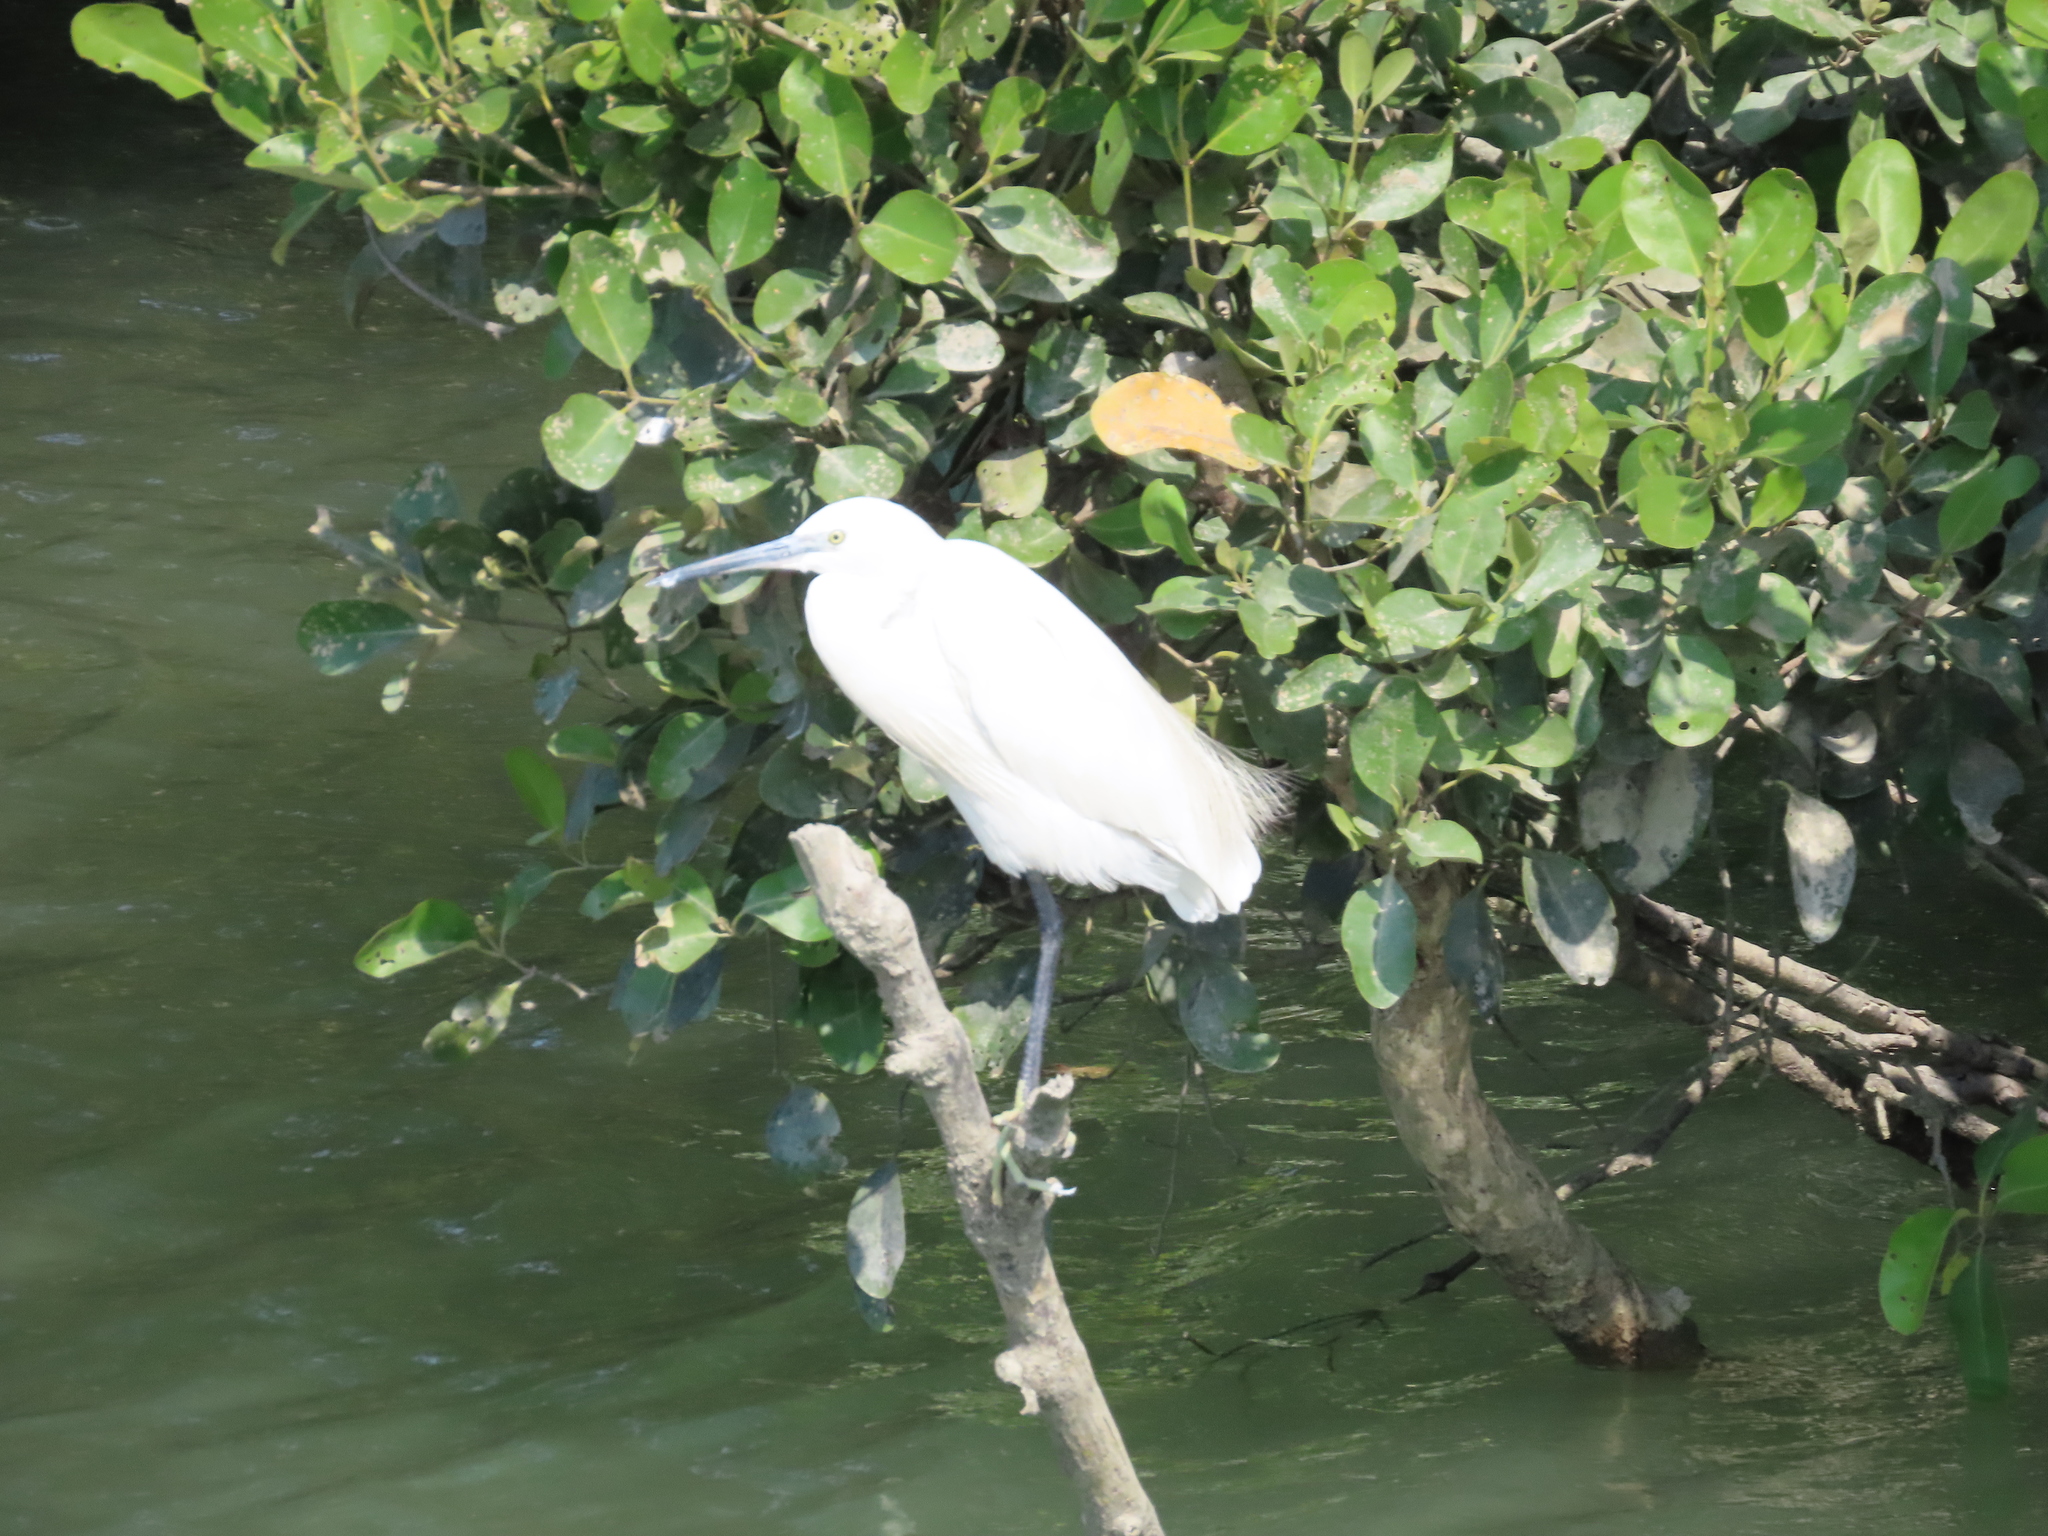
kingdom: Animalia
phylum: Chordata
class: Aves
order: Pelecaniformes
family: Ardeidae
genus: Egretta
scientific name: Egretta garzetta
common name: Little egret
